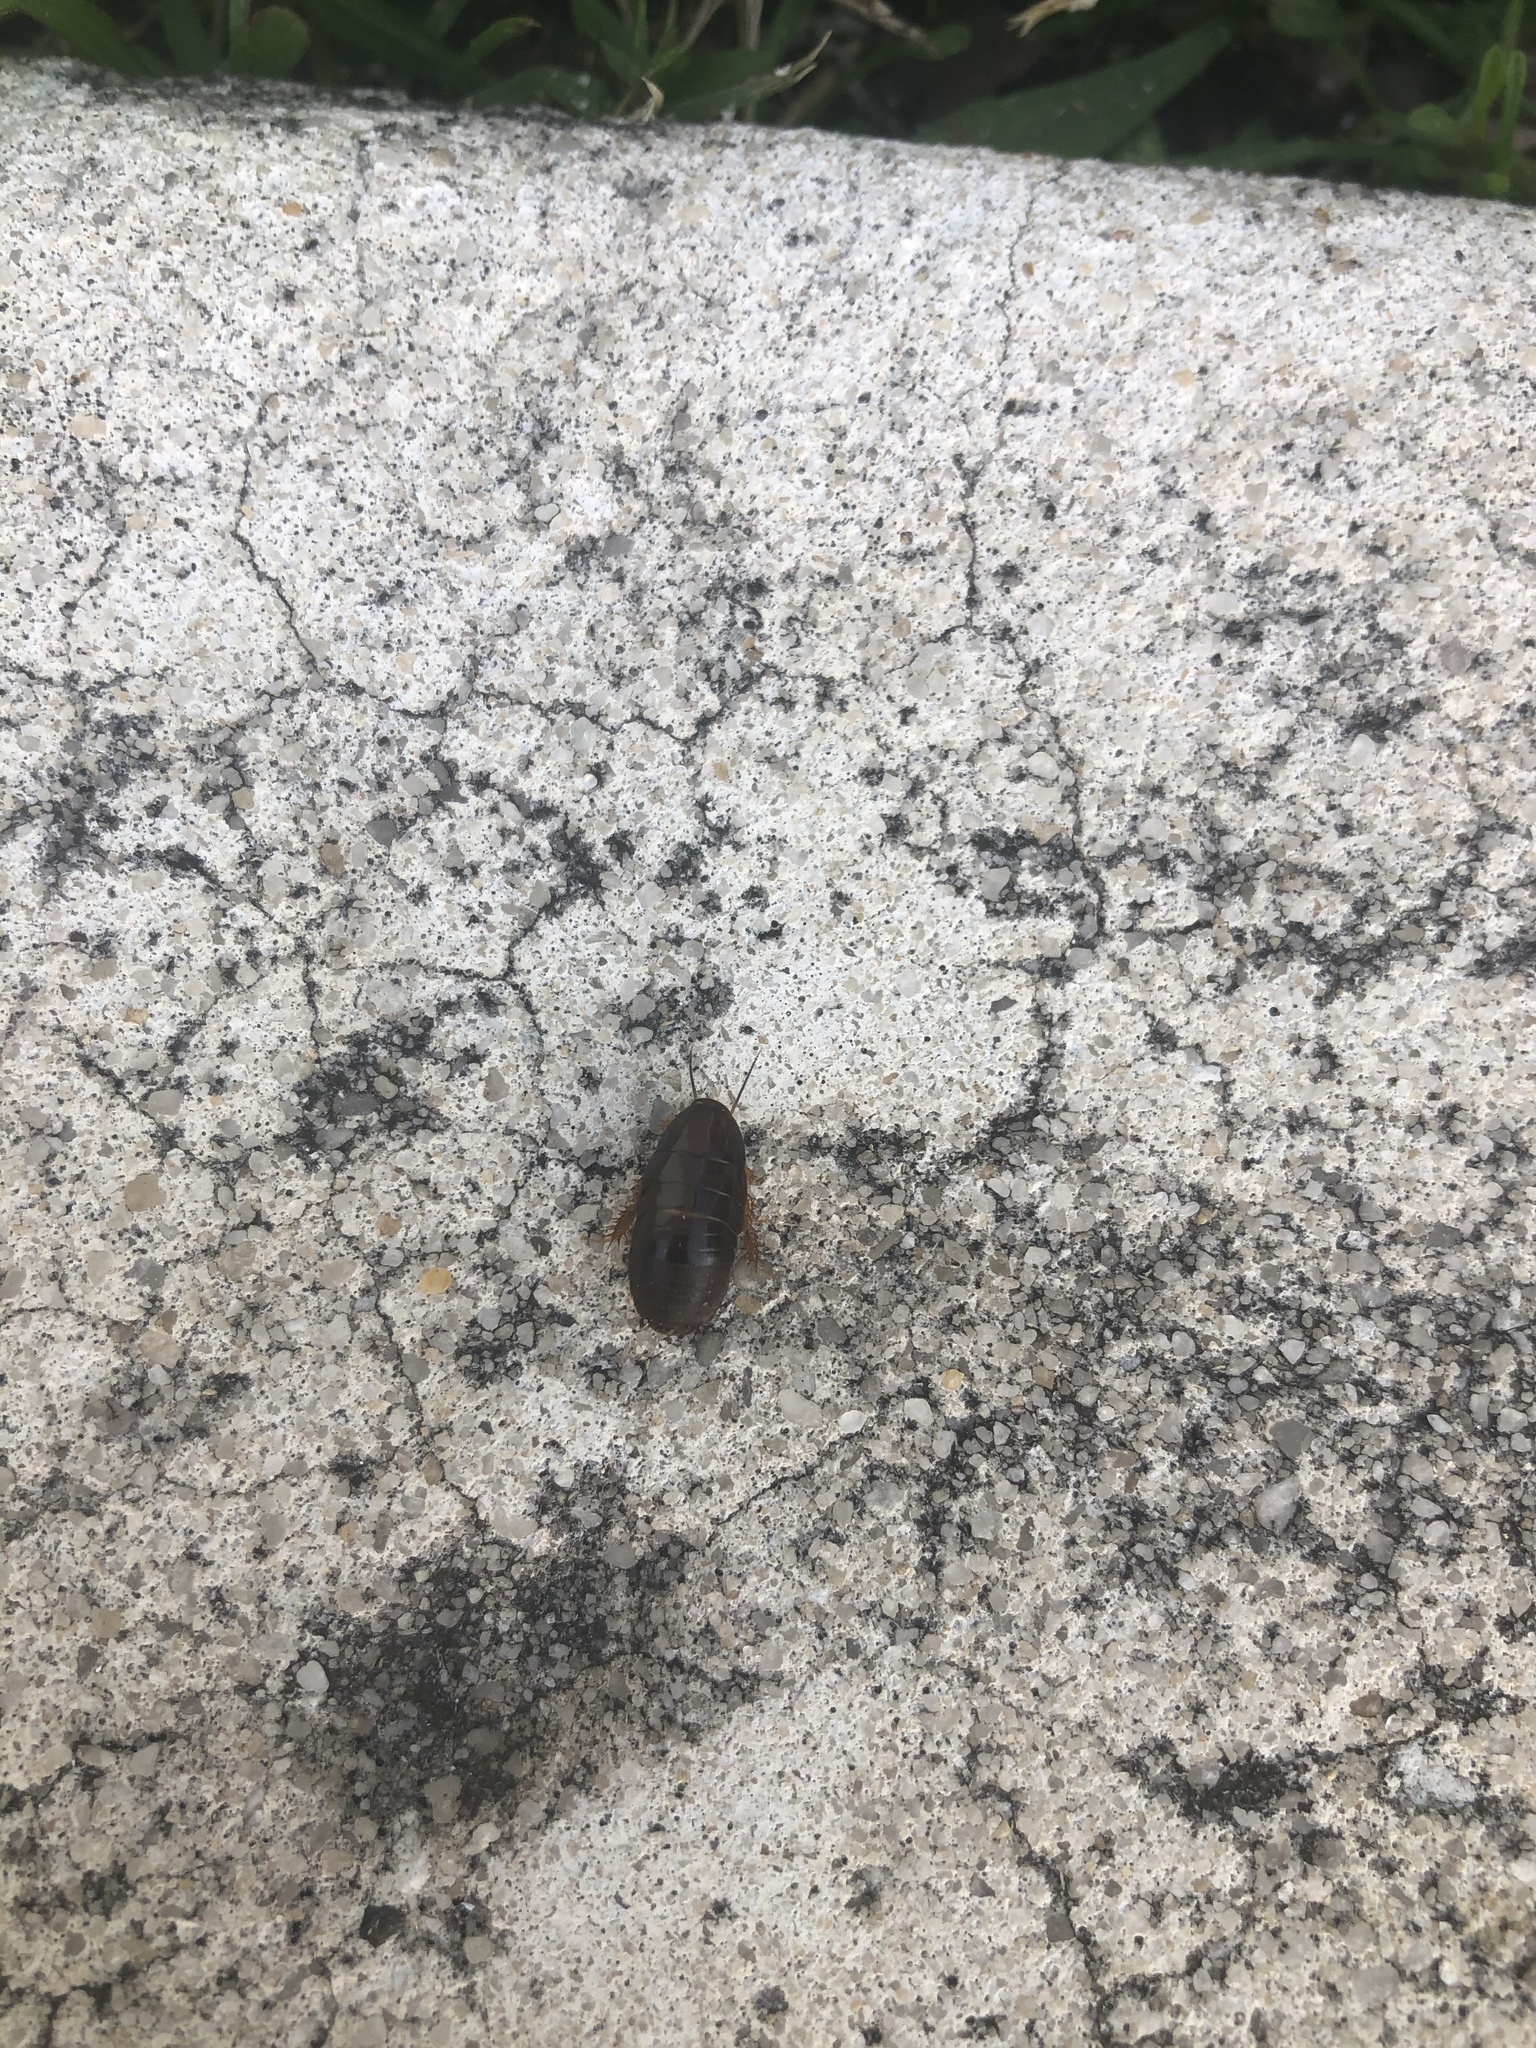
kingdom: Animalia
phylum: Arthropoda
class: Insecta
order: Blattodea
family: Blaberidae
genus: Pycnoscelus
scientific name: Pycnoscelus surinamensis
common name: Surinam cockroach
